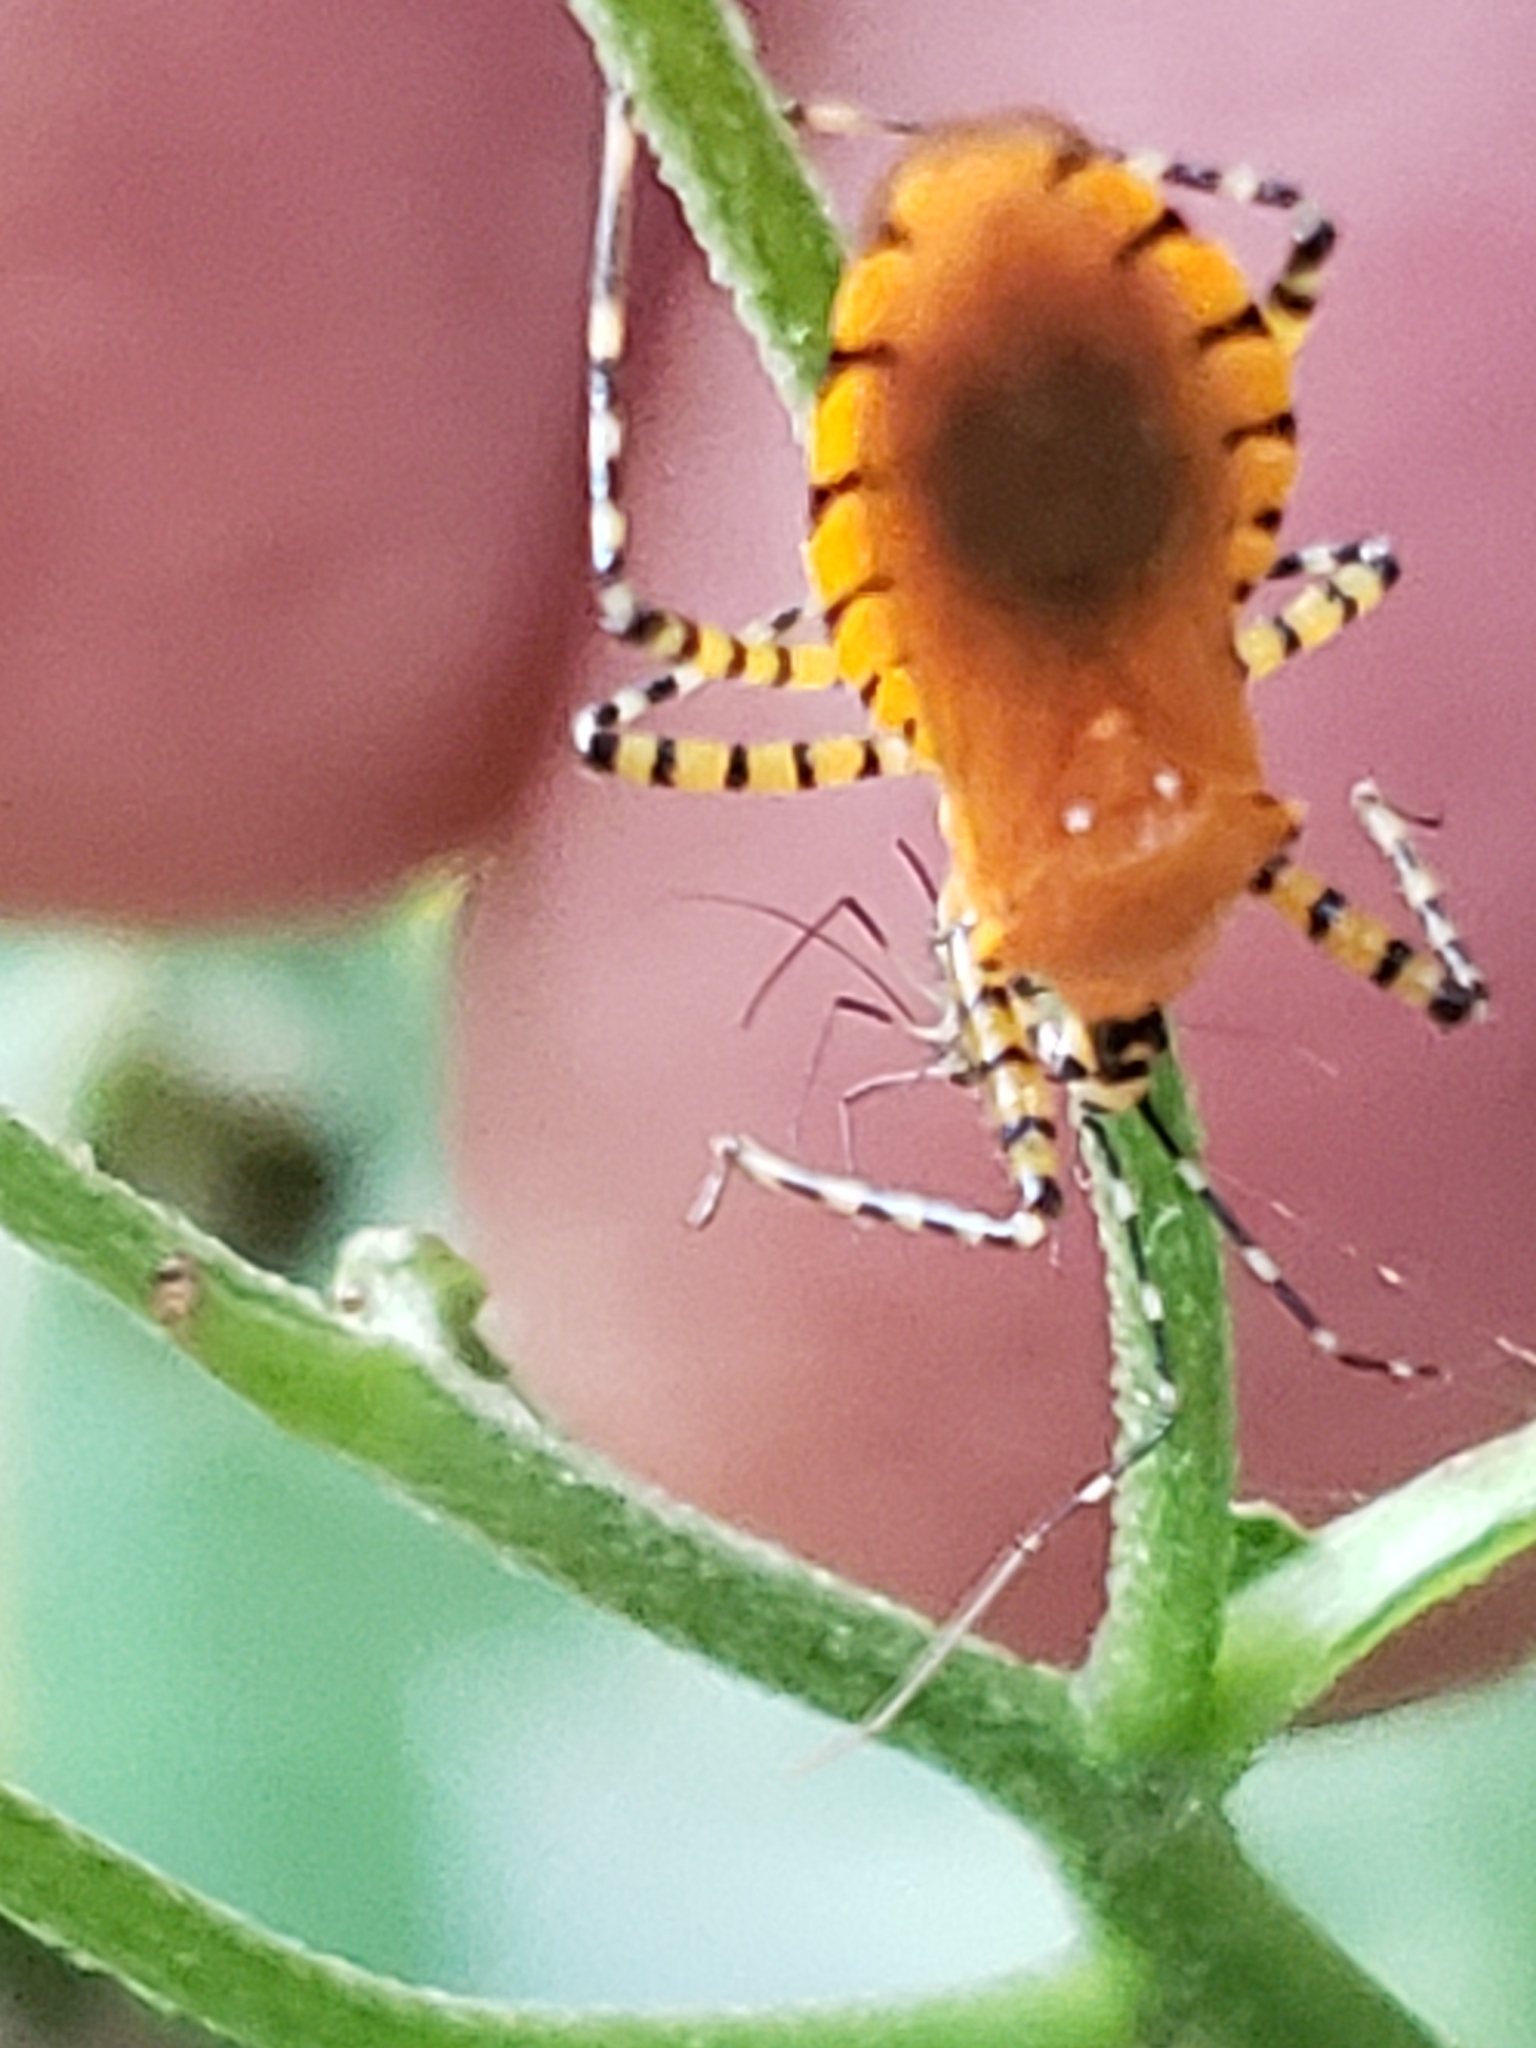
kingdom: Animalia
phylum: Arthropoda
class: Insecta
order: Hemiptera
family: Reduviidae
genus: Pselliopus
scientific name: Pselliopus barberi
